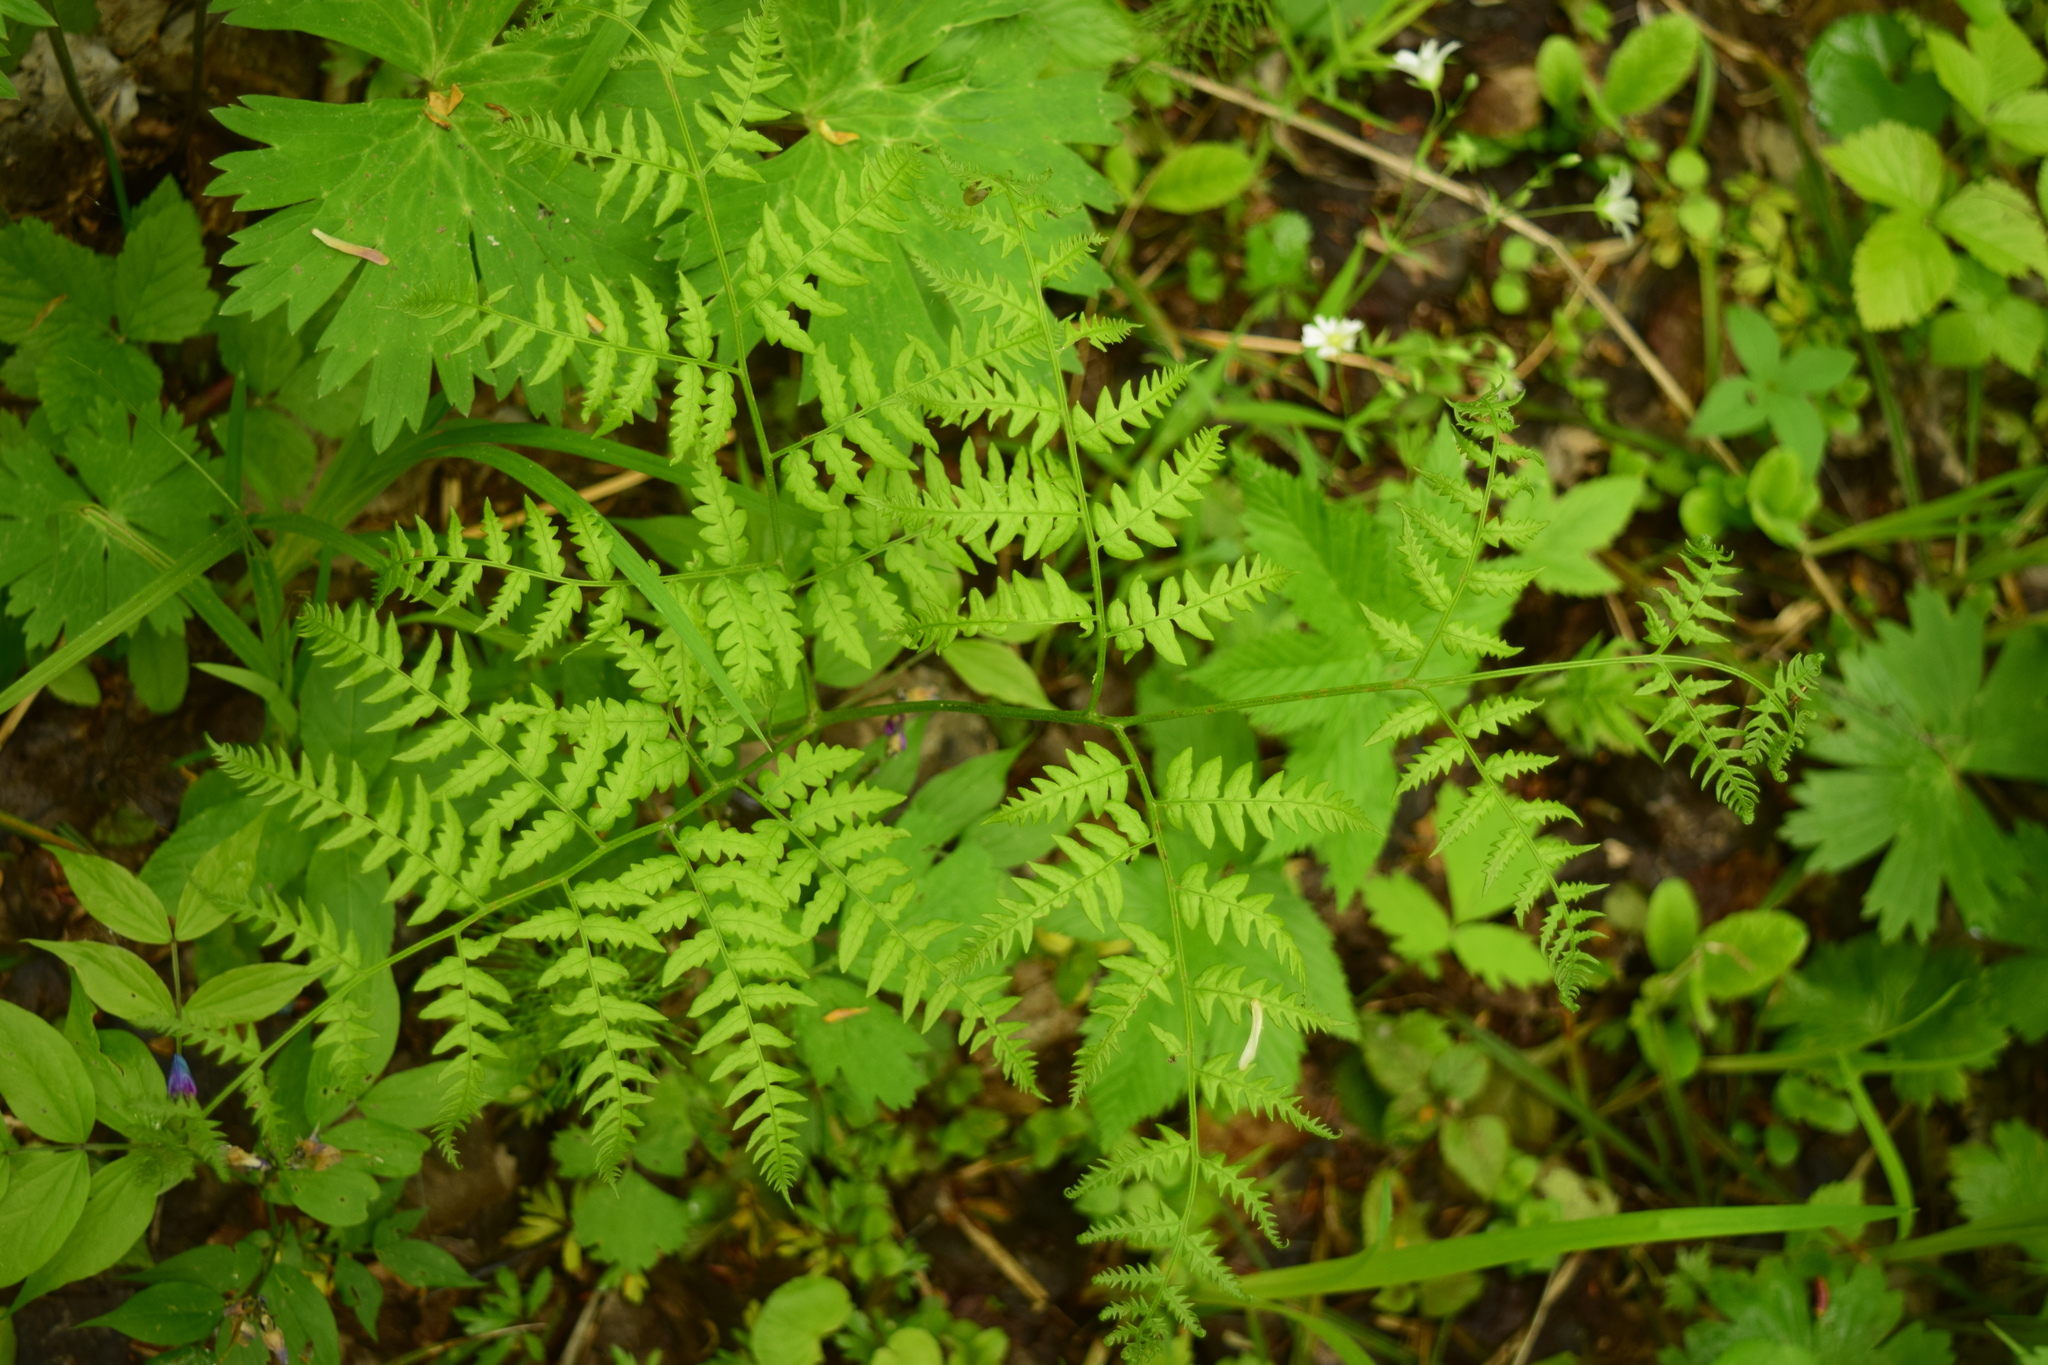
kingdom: Plantae
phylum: Tracheophyta
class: Polypodiopsida
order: Polypodiales
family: Dennstaedtiaceae
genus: Pteridium
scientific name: Pteridium aquilinum
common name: Bracken
